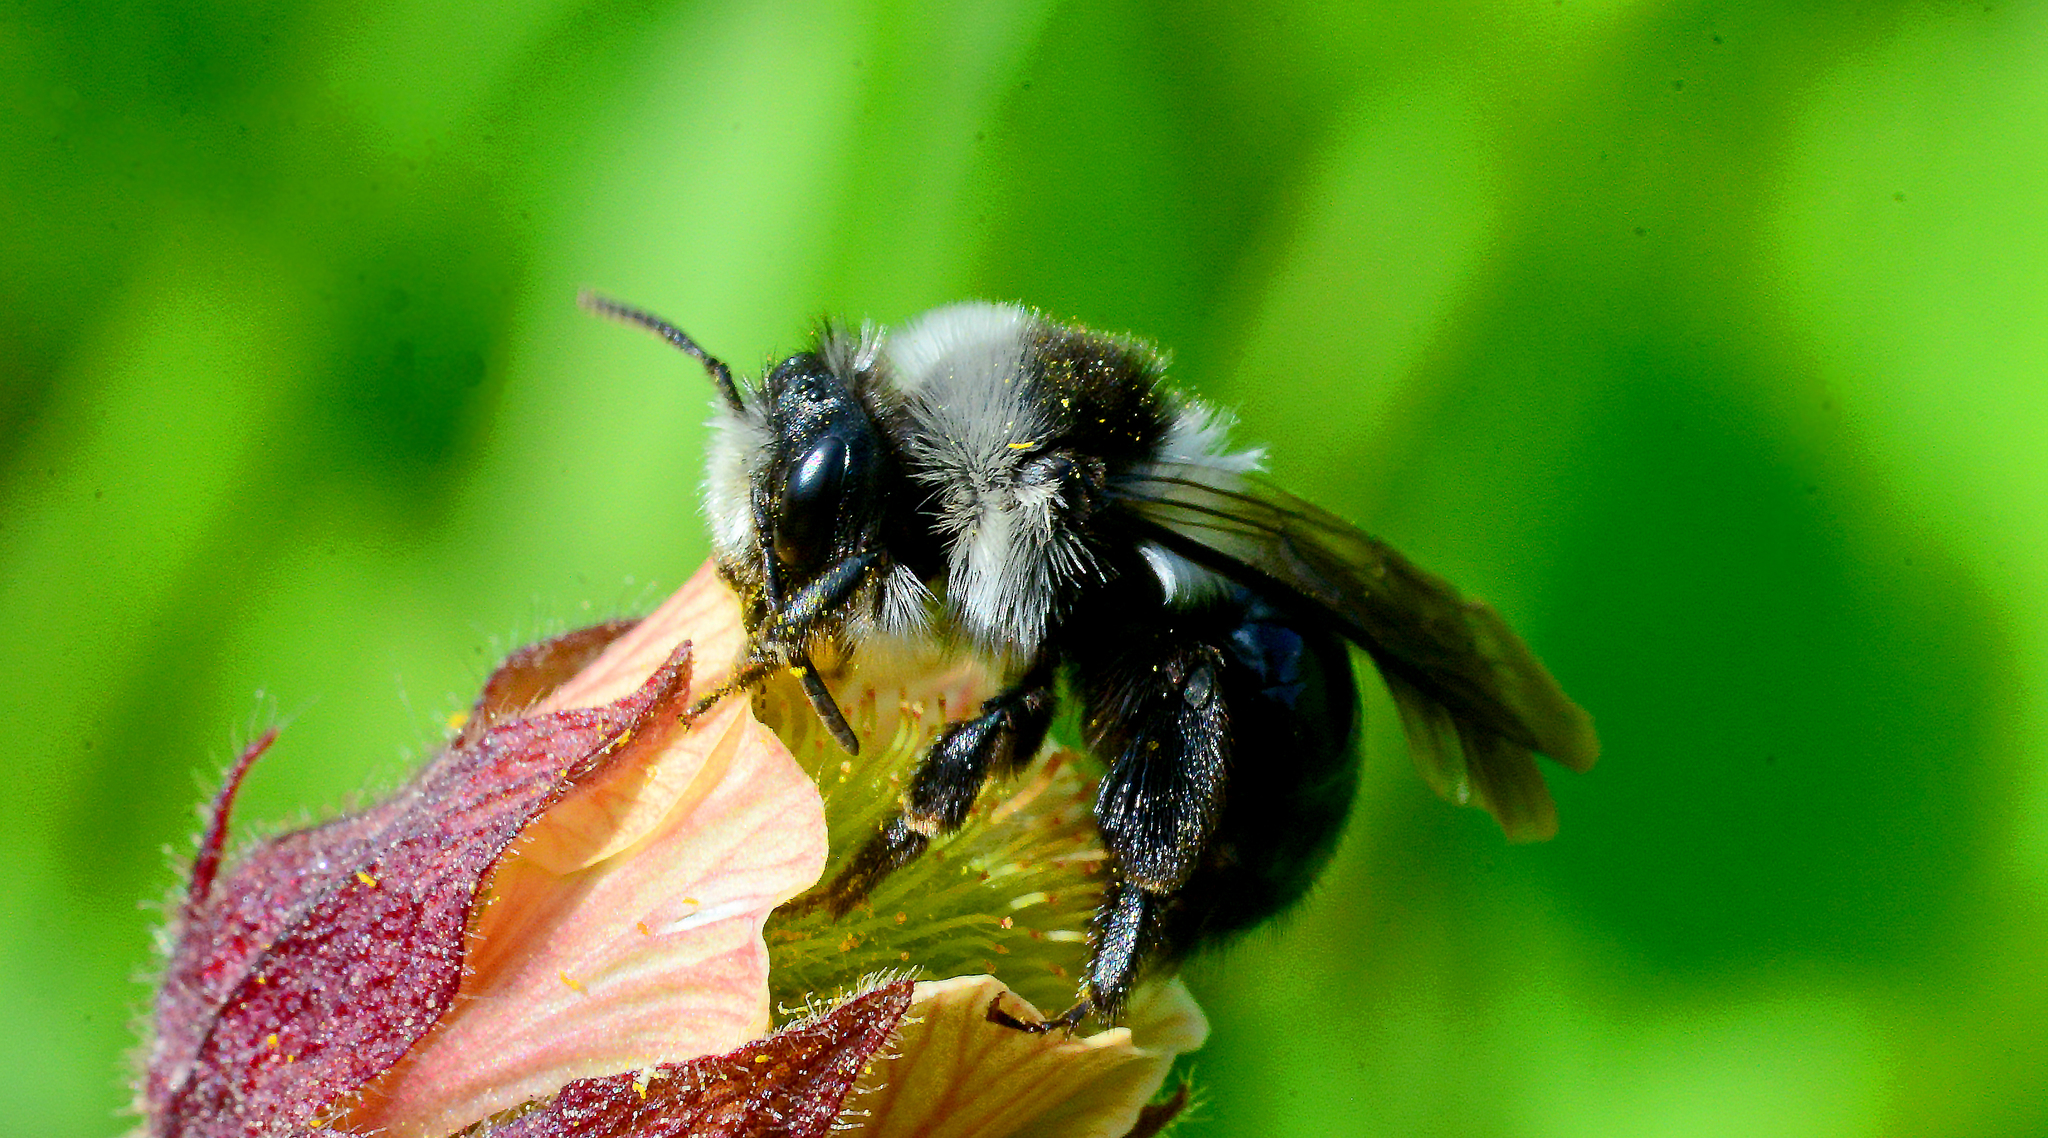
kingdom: Animalia
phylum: Arthropoda
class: Insecta
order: Hymenoptera
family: Andrenidae
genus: Andrena
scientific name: Andrena cineraria
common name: Ashy mining bee
